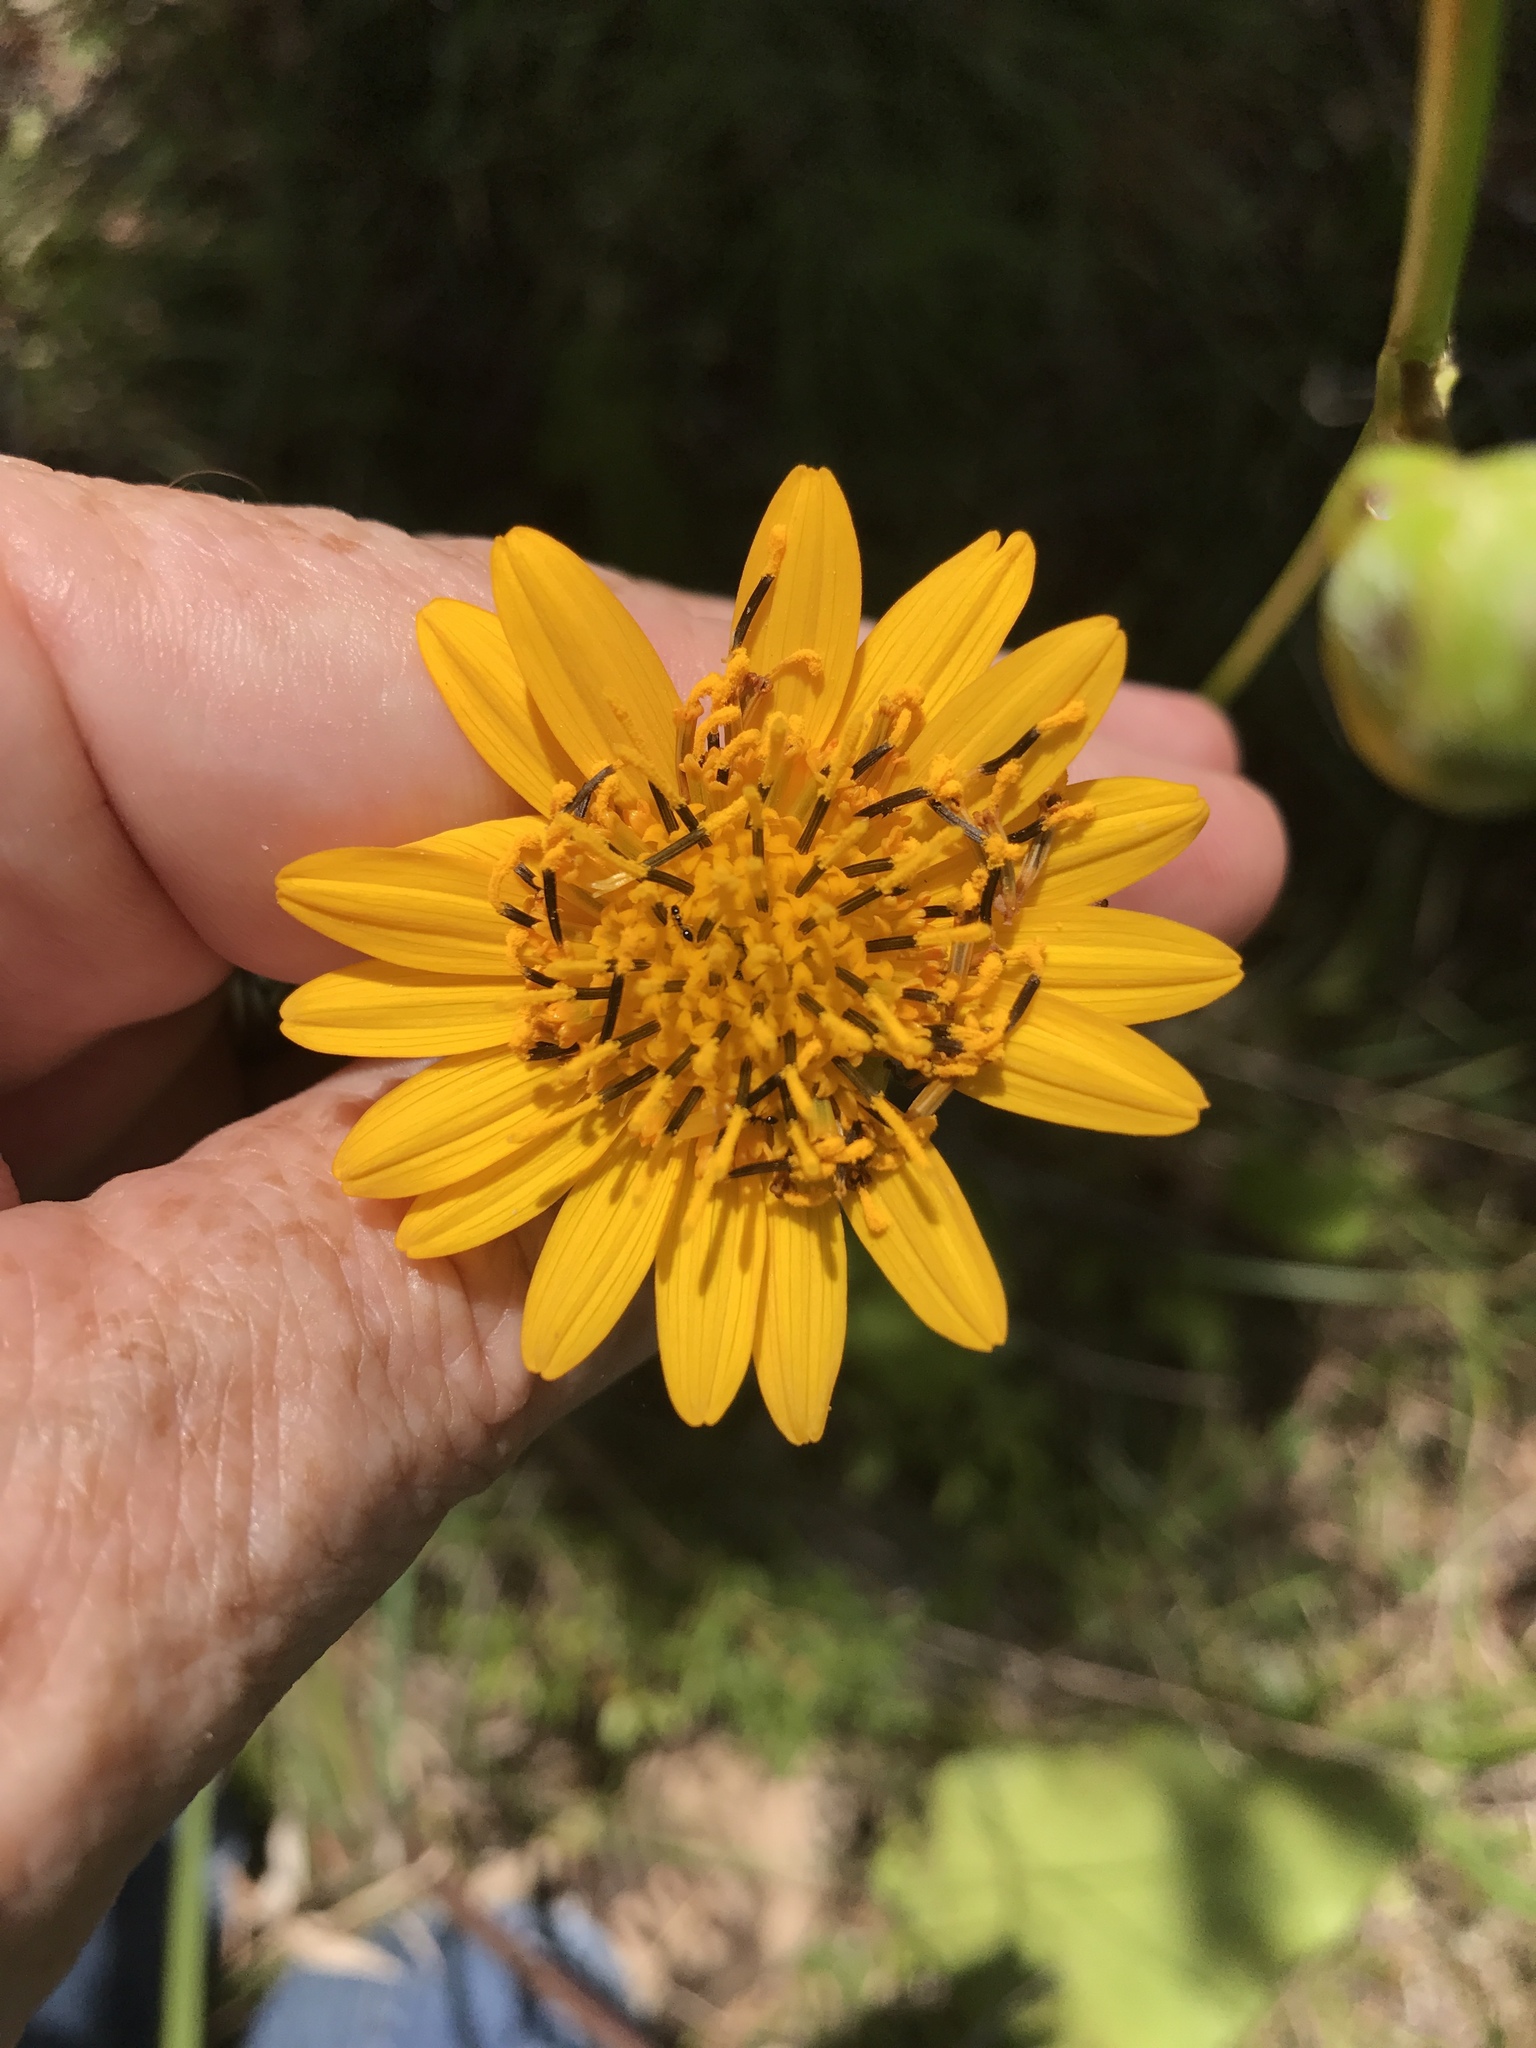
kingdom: Plantae
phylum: Tracheophyta
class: Magnoliopsida
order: Asterales
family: Asteraceae
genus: Silphium
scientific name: Silphium terebinthinaceum
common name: Basal-leaf rosinweed
